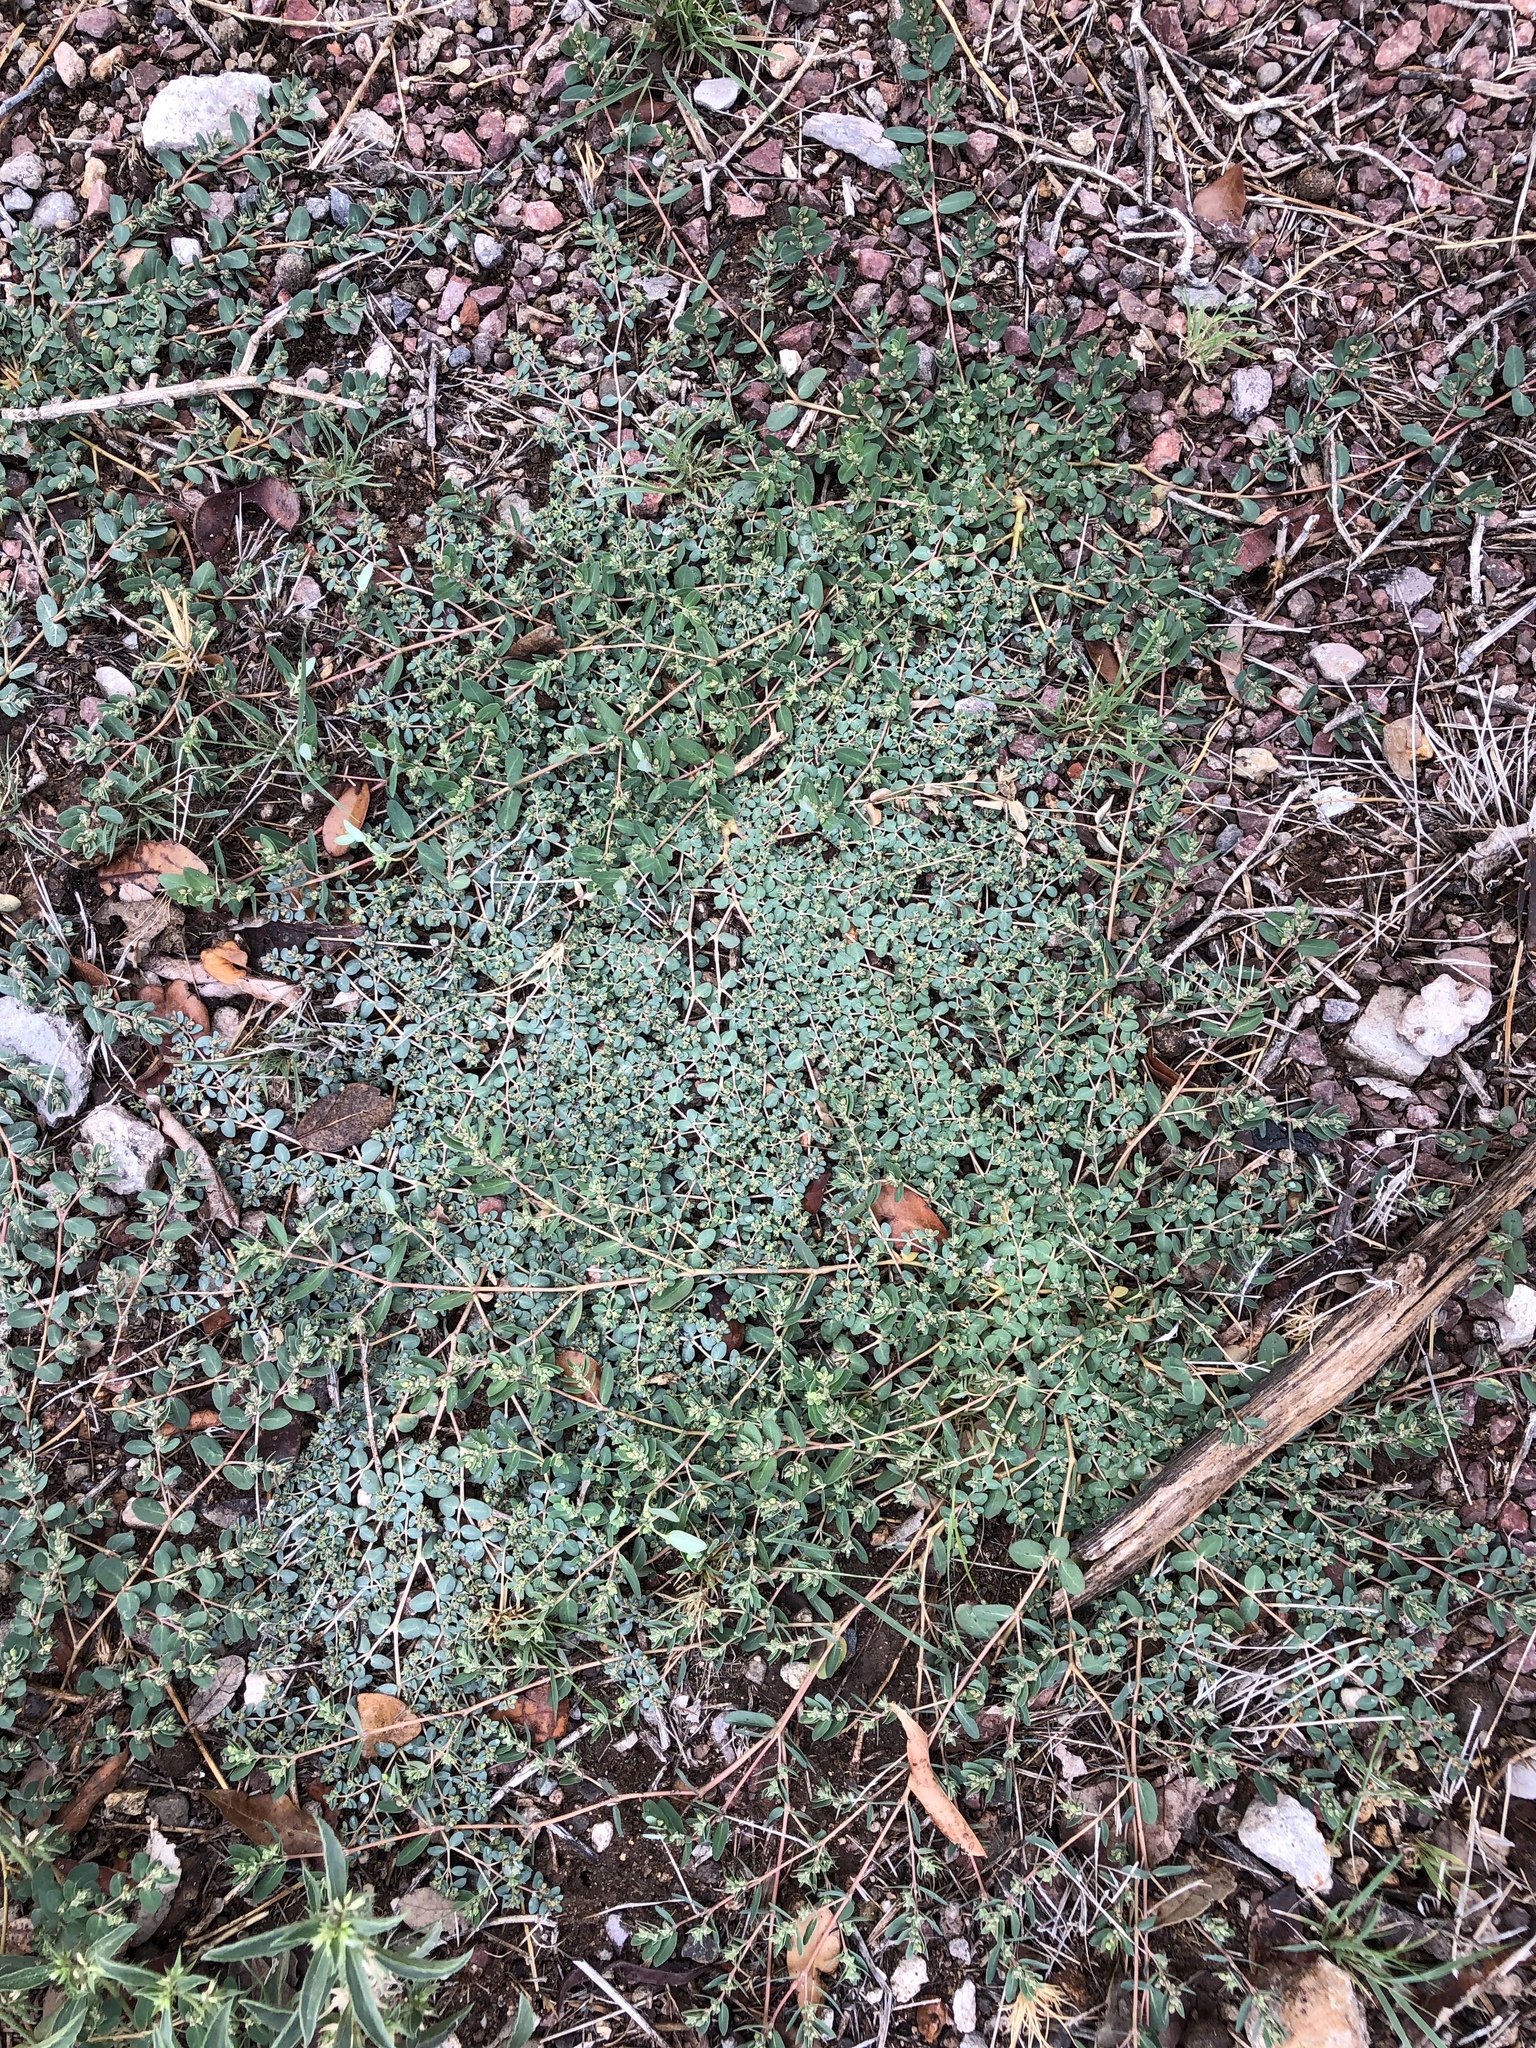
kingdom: Plantae
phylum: Tracheophyta
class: Magnoliopsida
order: Malpighiales
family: Euphorbiaceae
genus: Euphorbia
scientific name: Euphorbia micromera
